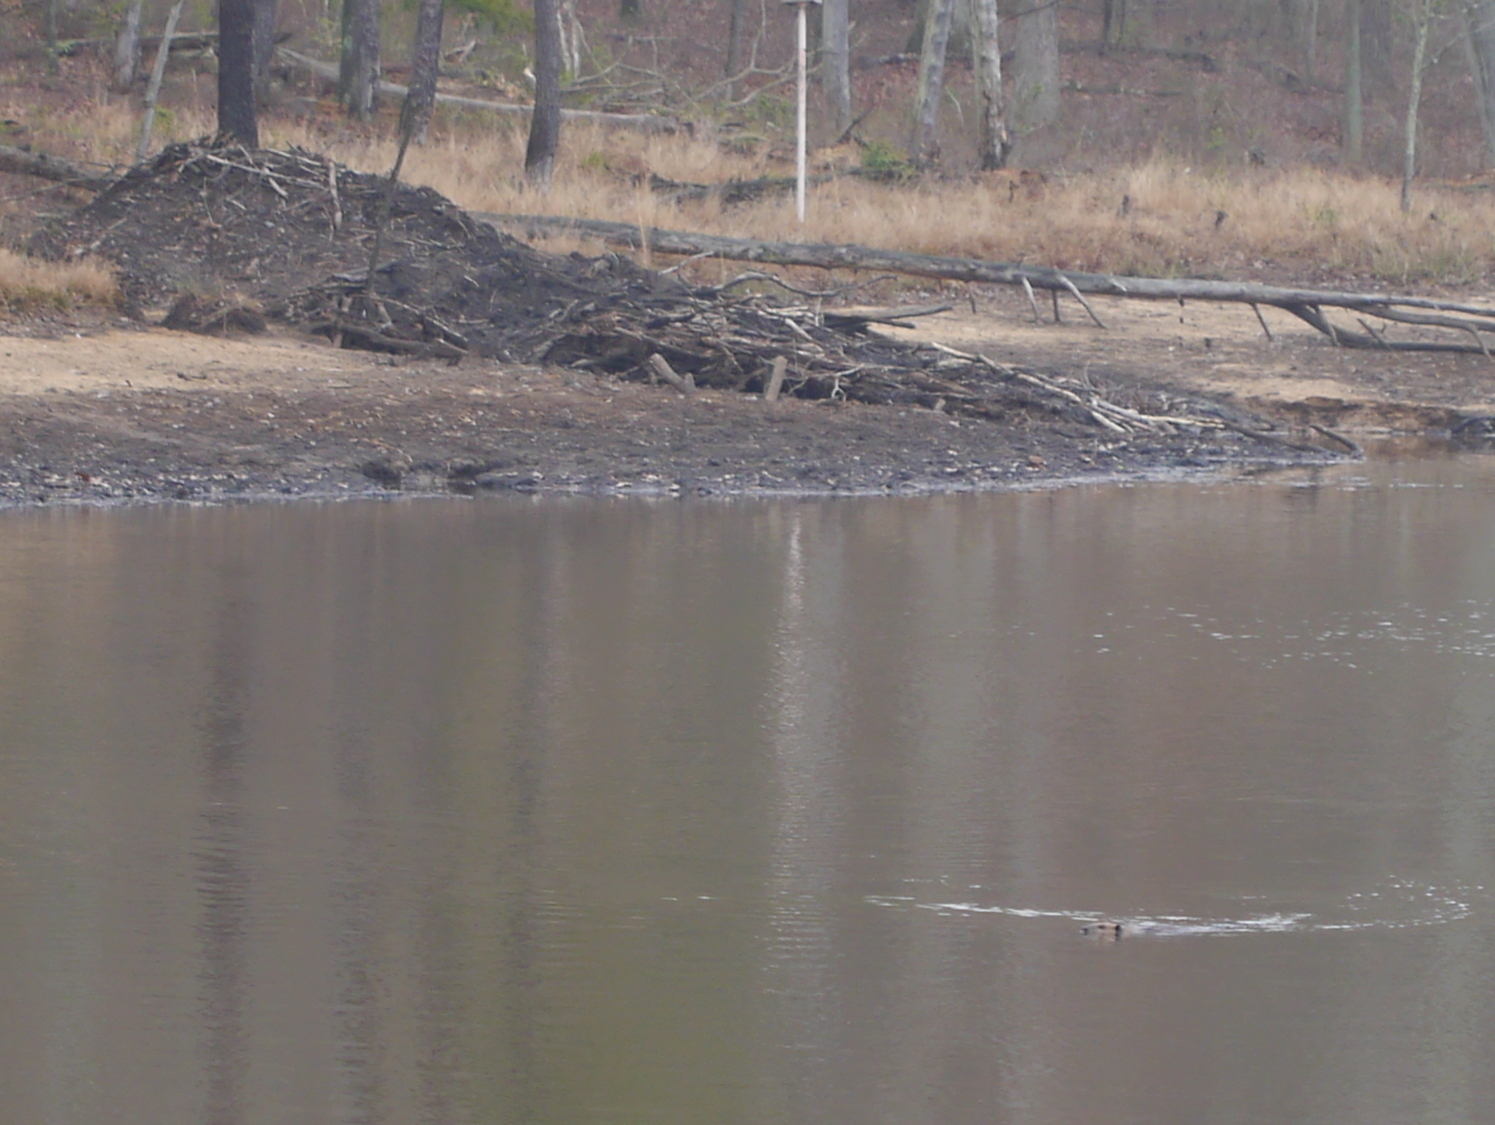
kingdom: Animalia
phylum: Chordata
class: Mammalia
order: Rodentia
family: Castoridae
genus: Castor
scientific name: Castor canadensis
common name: American beaver
